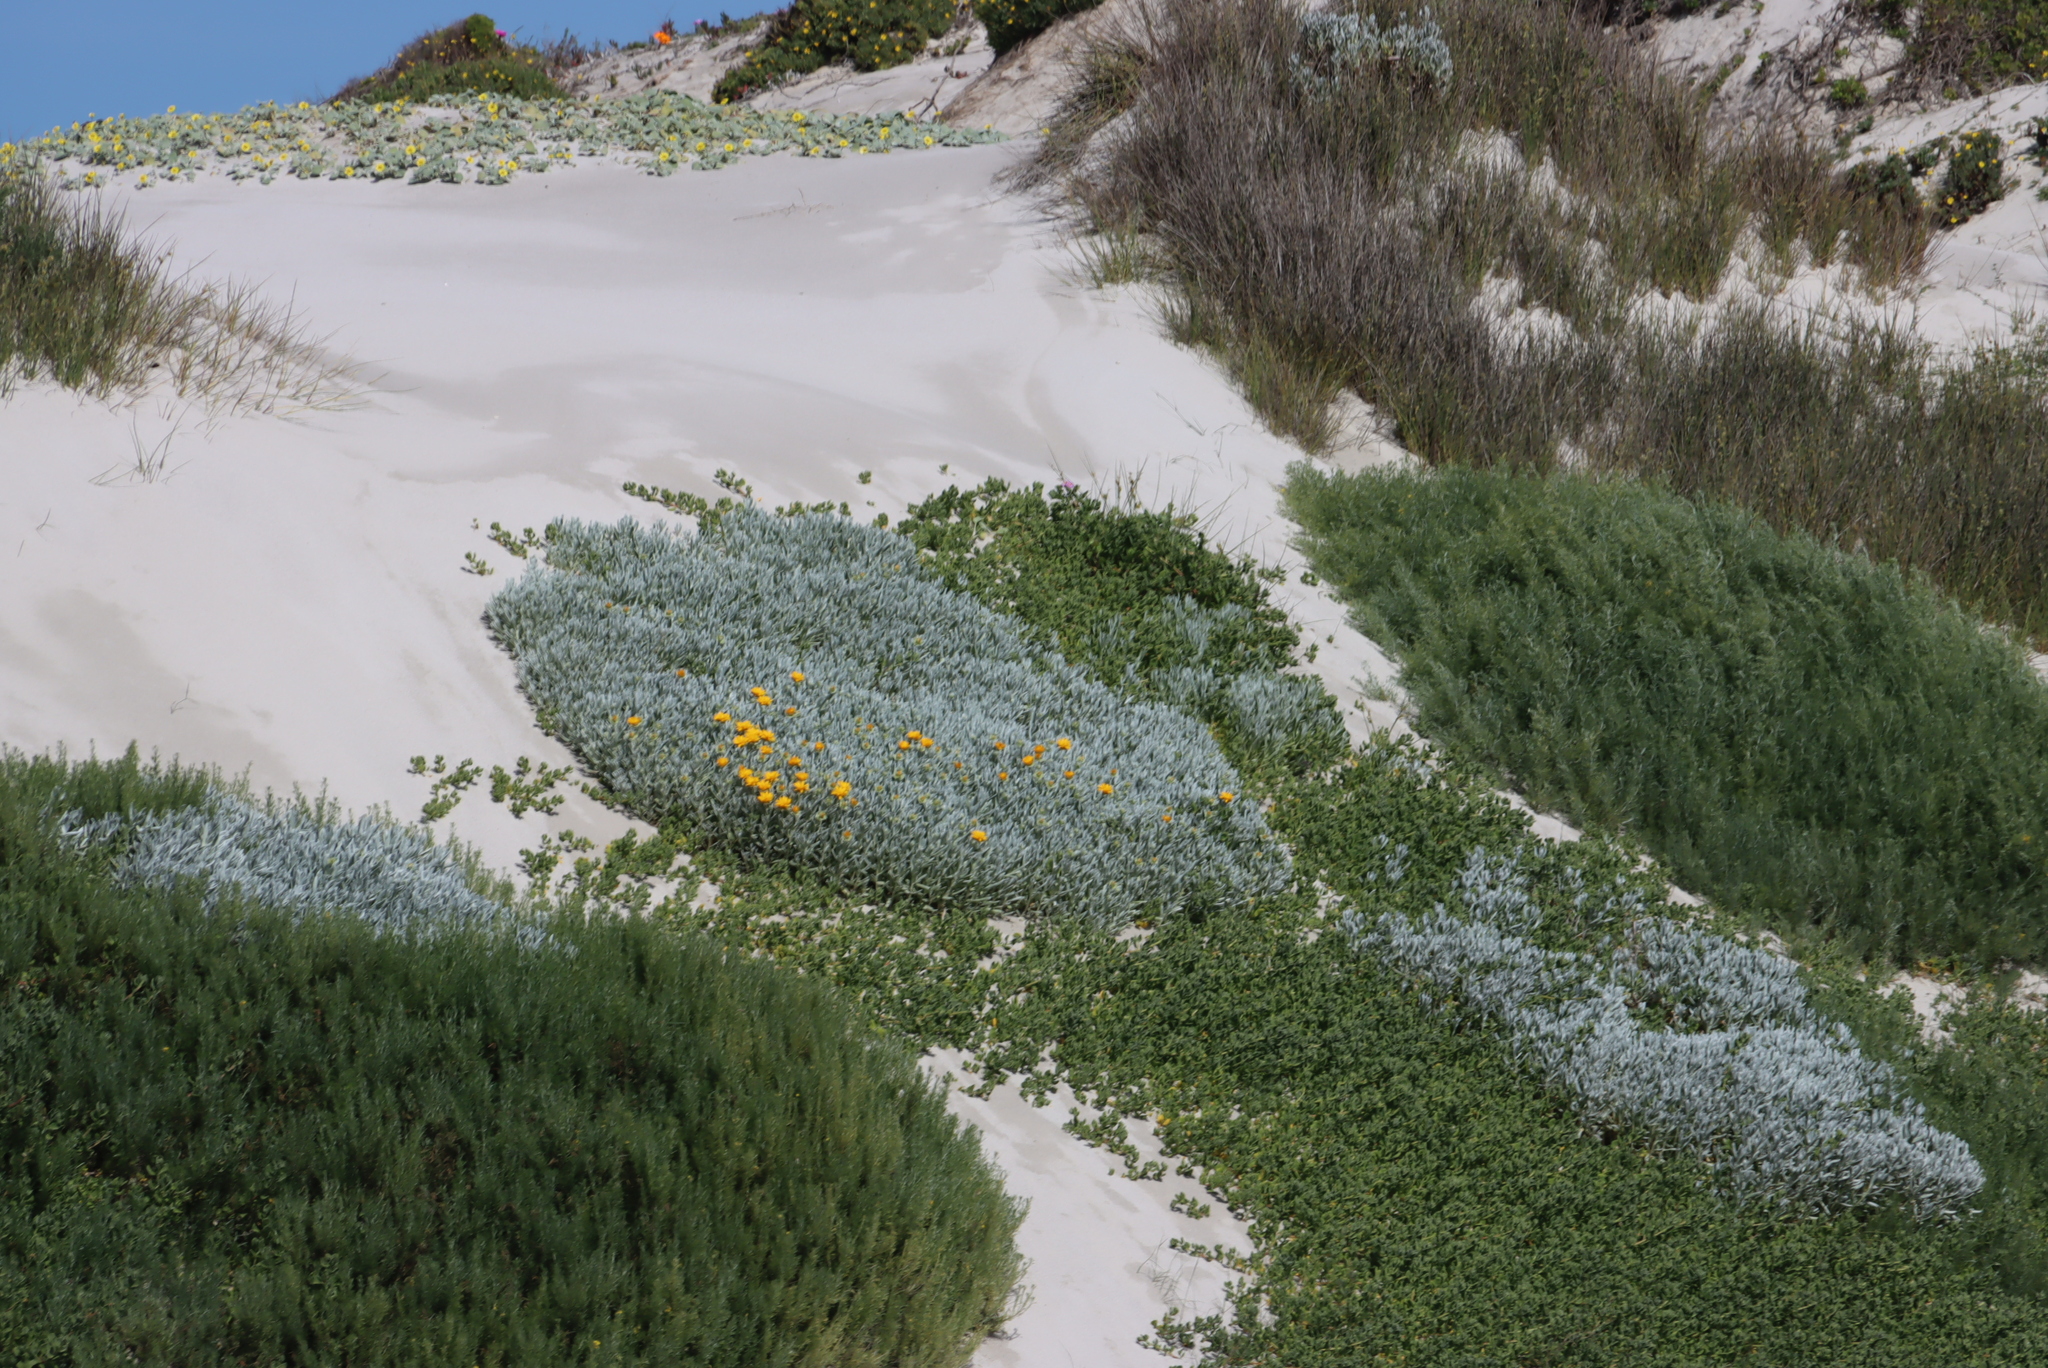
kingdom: Plantae
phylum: Tracheophyta
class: Magnoliopsida
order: Asterales
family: Asteraceae
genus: Didelta
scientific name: Didelta carnosa
